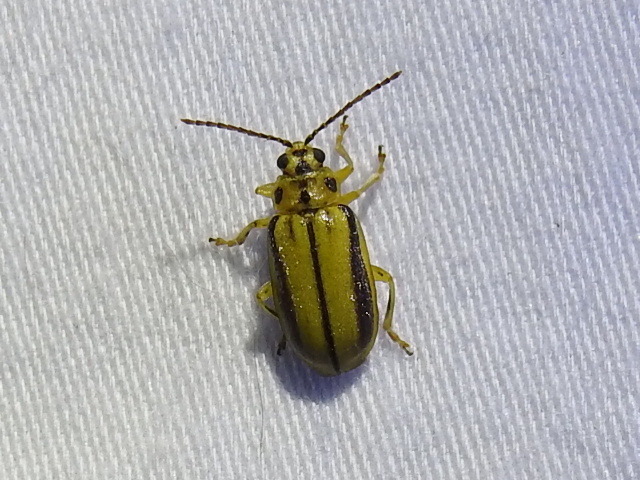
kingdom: Animalia
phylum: Arthropoda
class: Insecta
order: Coleoptera
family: Chrysomelidae
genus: Xanthogaleruca
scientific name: Xanthogaleruca luteola
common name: Elm leaf beetle
